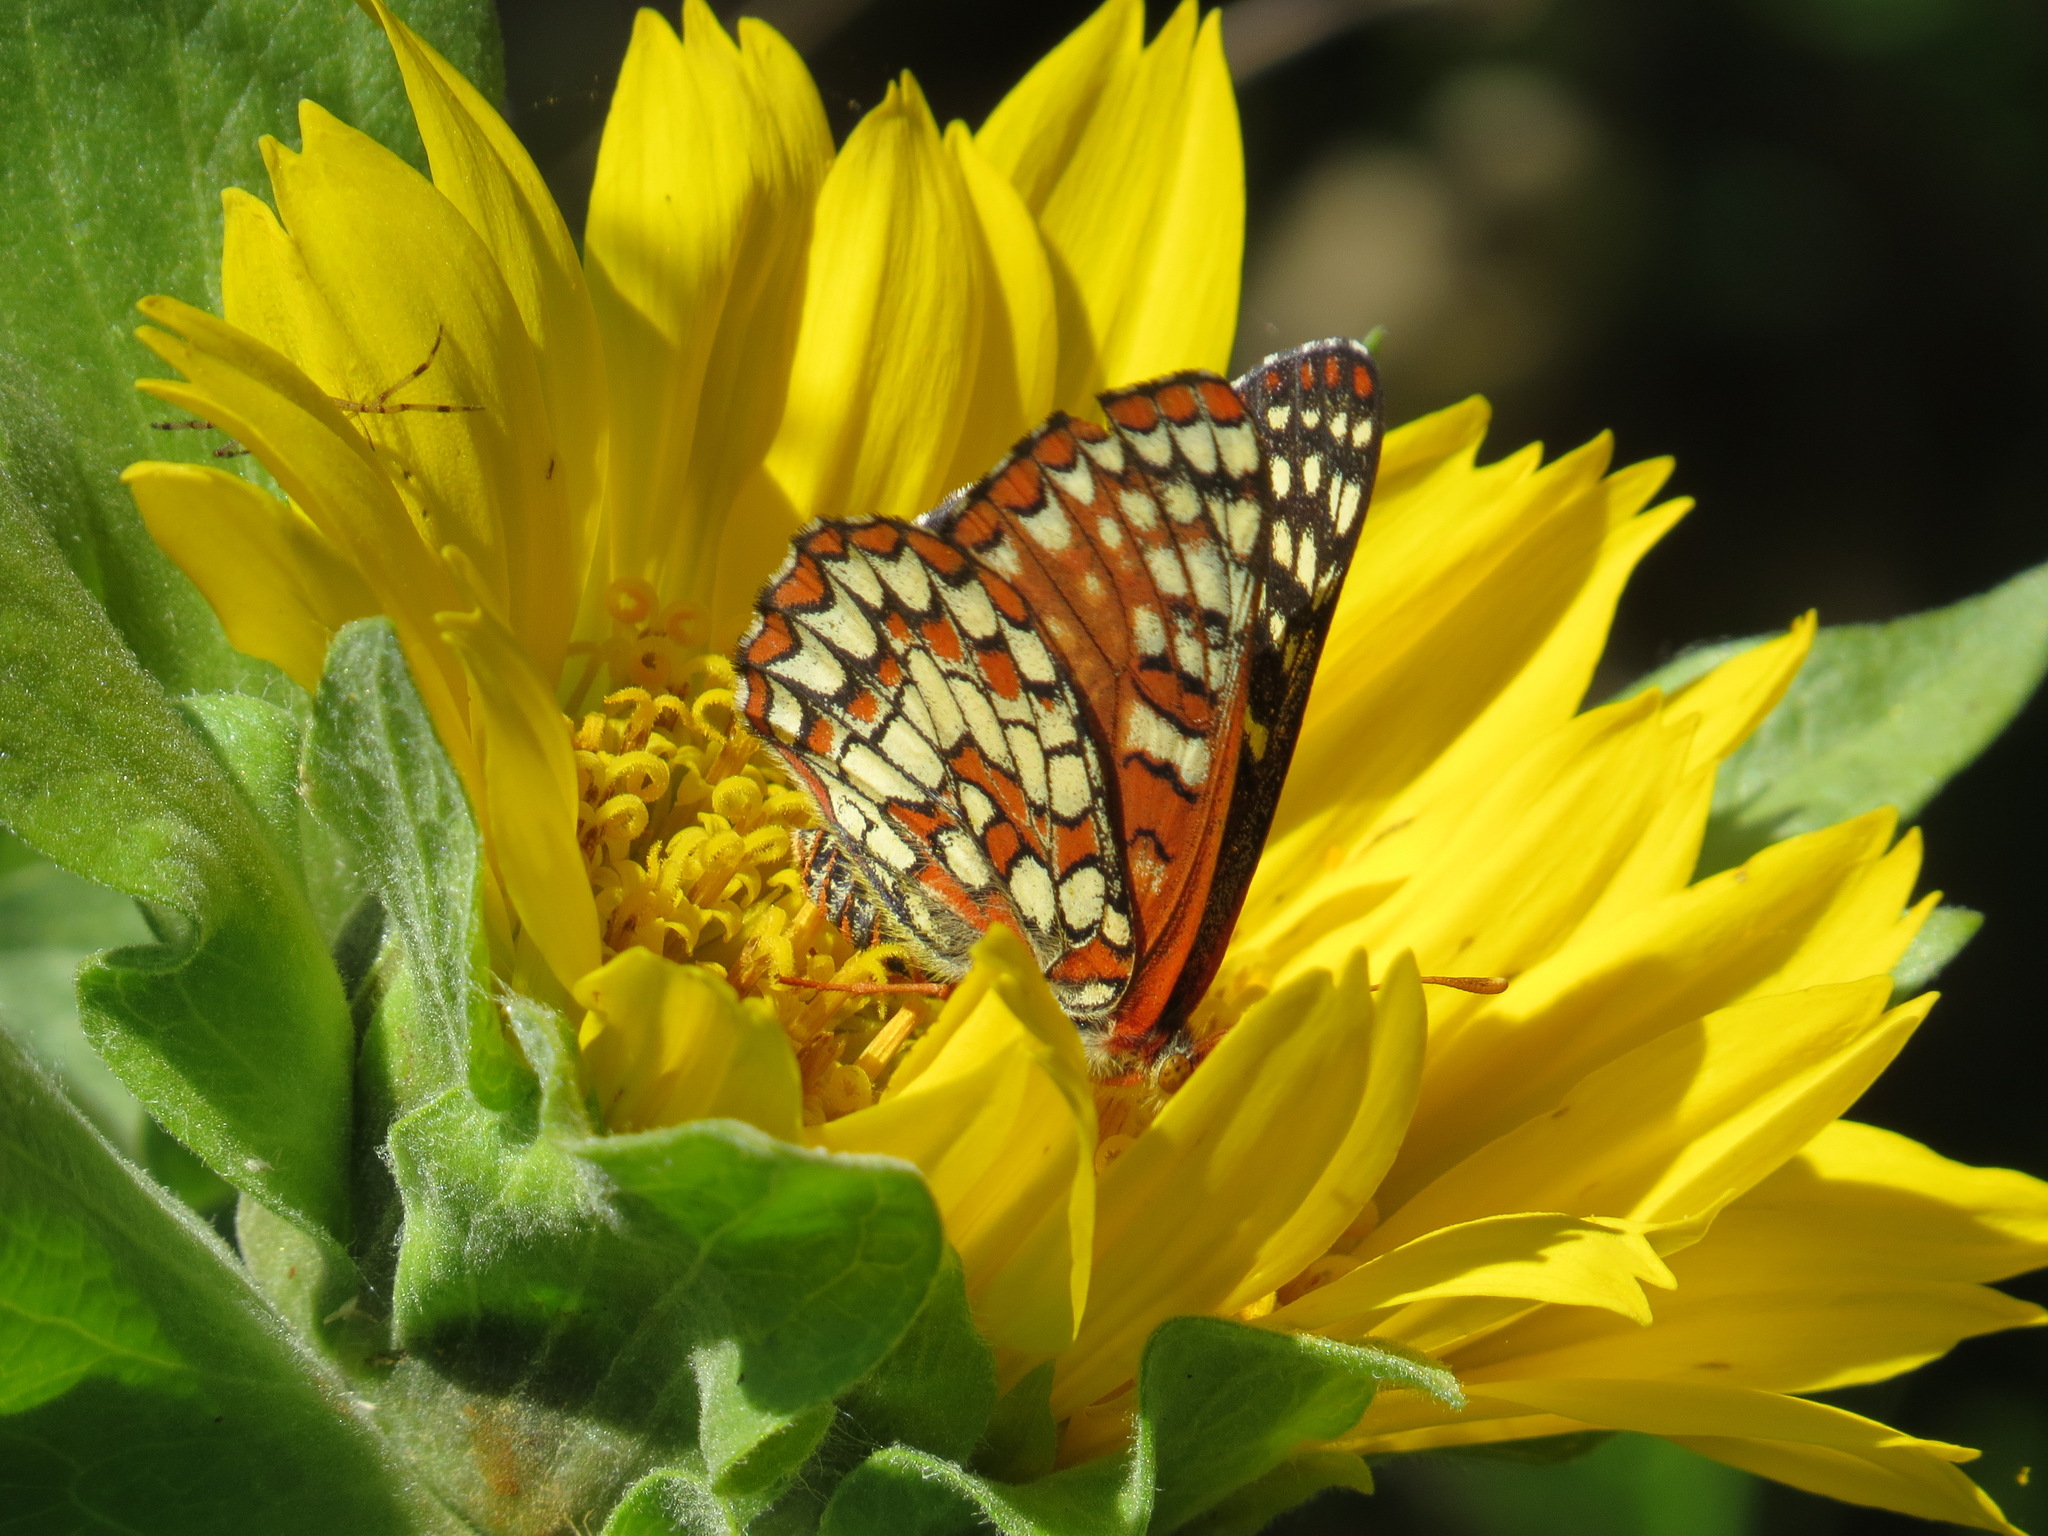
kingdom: Animalia
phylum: Arthropoda
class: Insecta
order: Lepidoptera
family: Nymphalidae
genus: Occidryas
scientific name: Occidryas chalcedona
